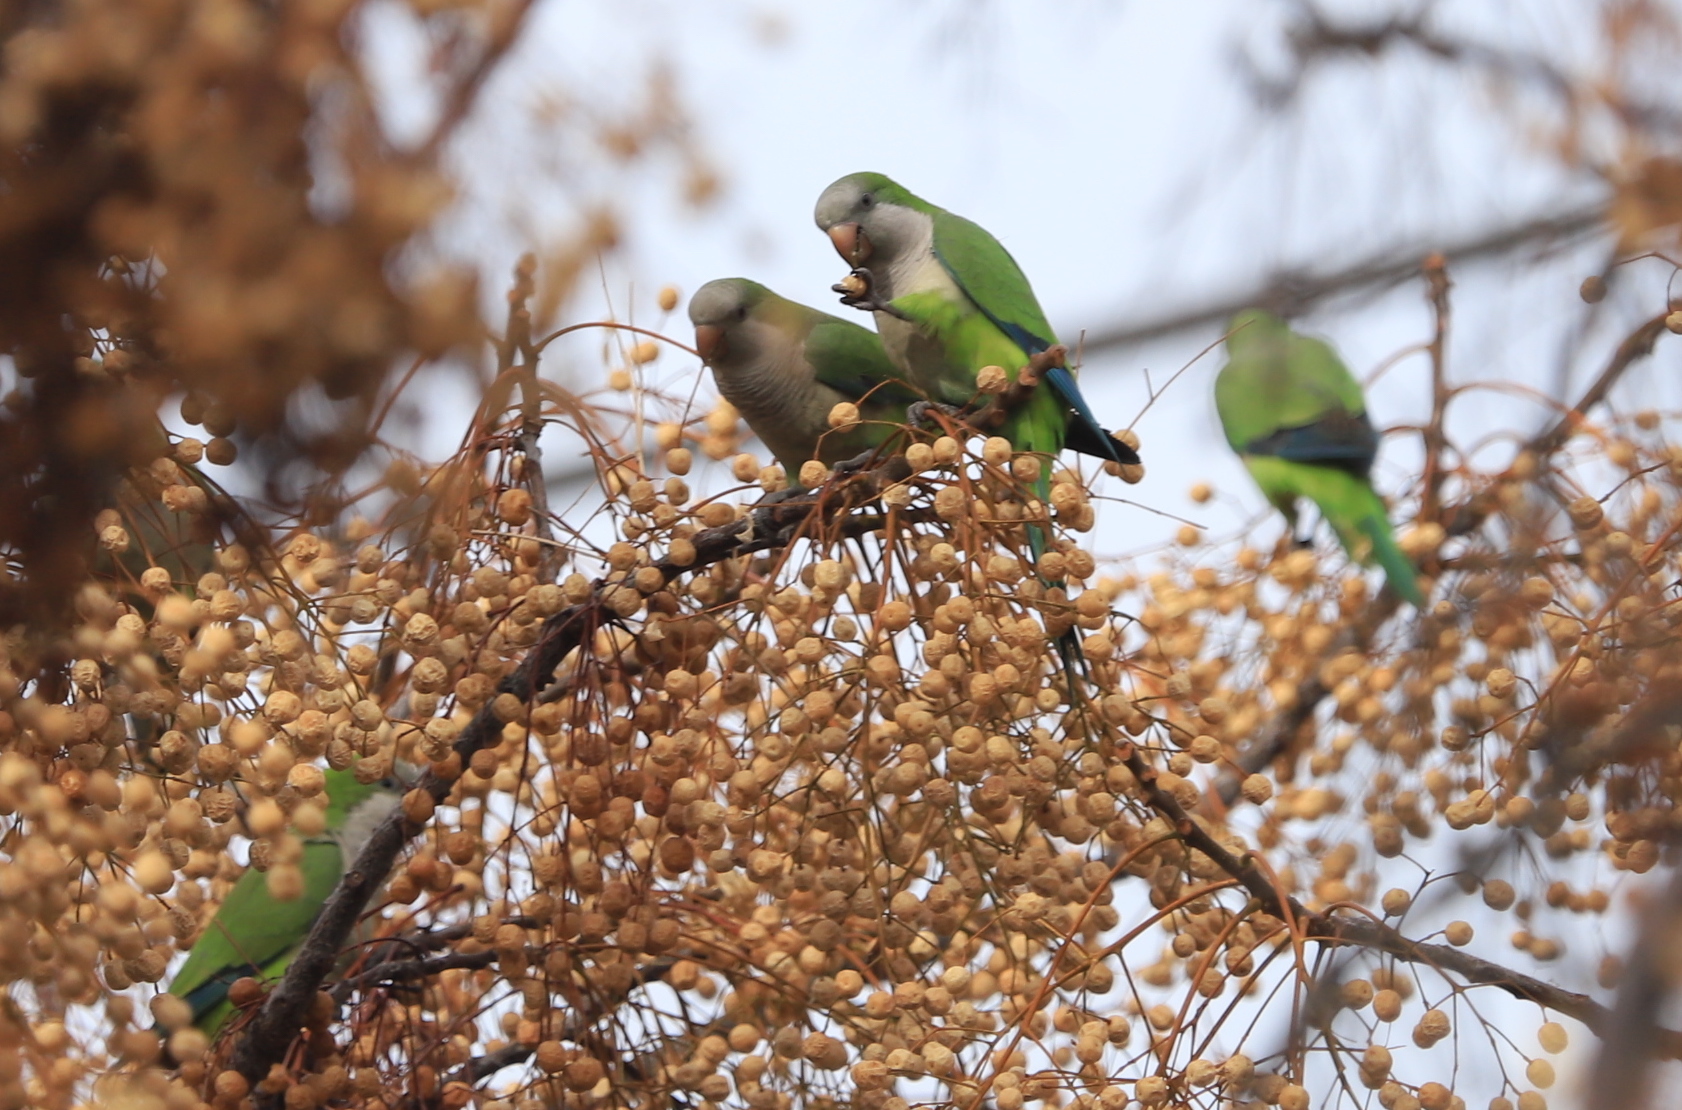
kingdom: Animalia
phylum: Chordata
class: Aves
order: Psittaciformes
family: Psittacidae
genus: Myiopsitta
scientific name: Myiopsitta monachus
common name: Monk parakeet
